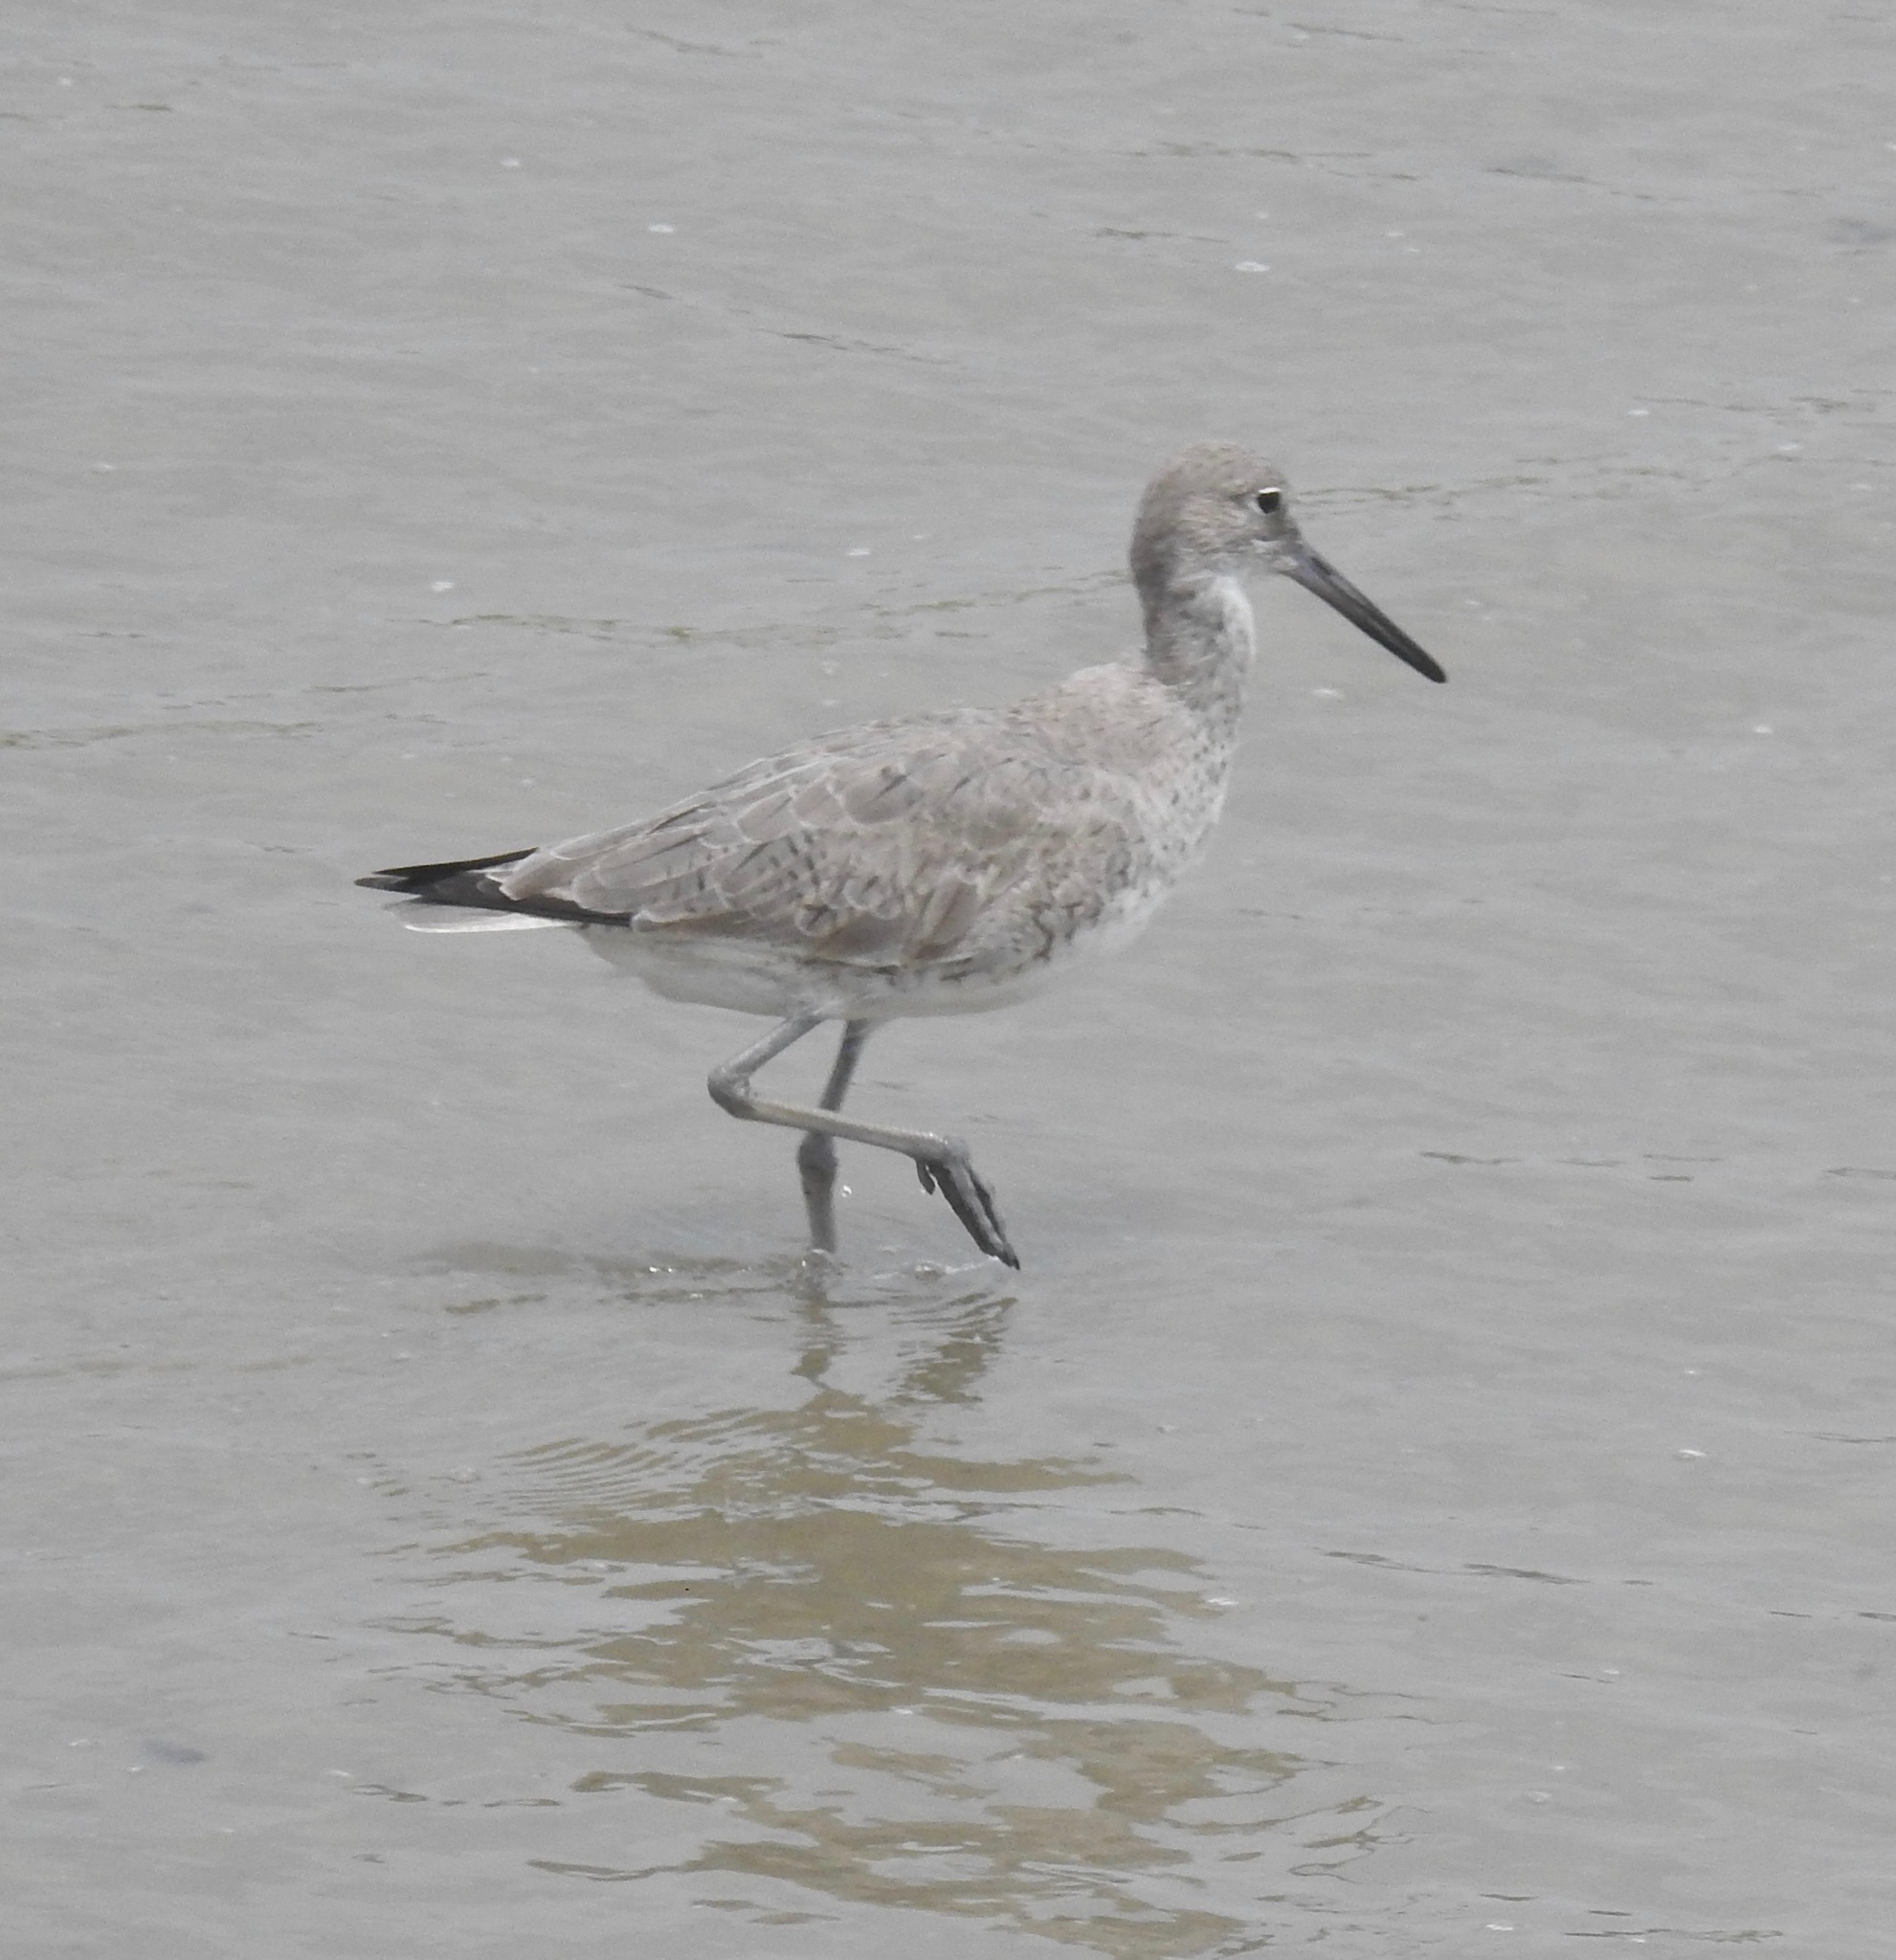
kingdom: Animalia
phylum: Chordata
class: Aves
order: Charadriiformes
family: Scolopacidae
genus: Tringa
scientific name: Tringa semipalmata
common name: Willet
